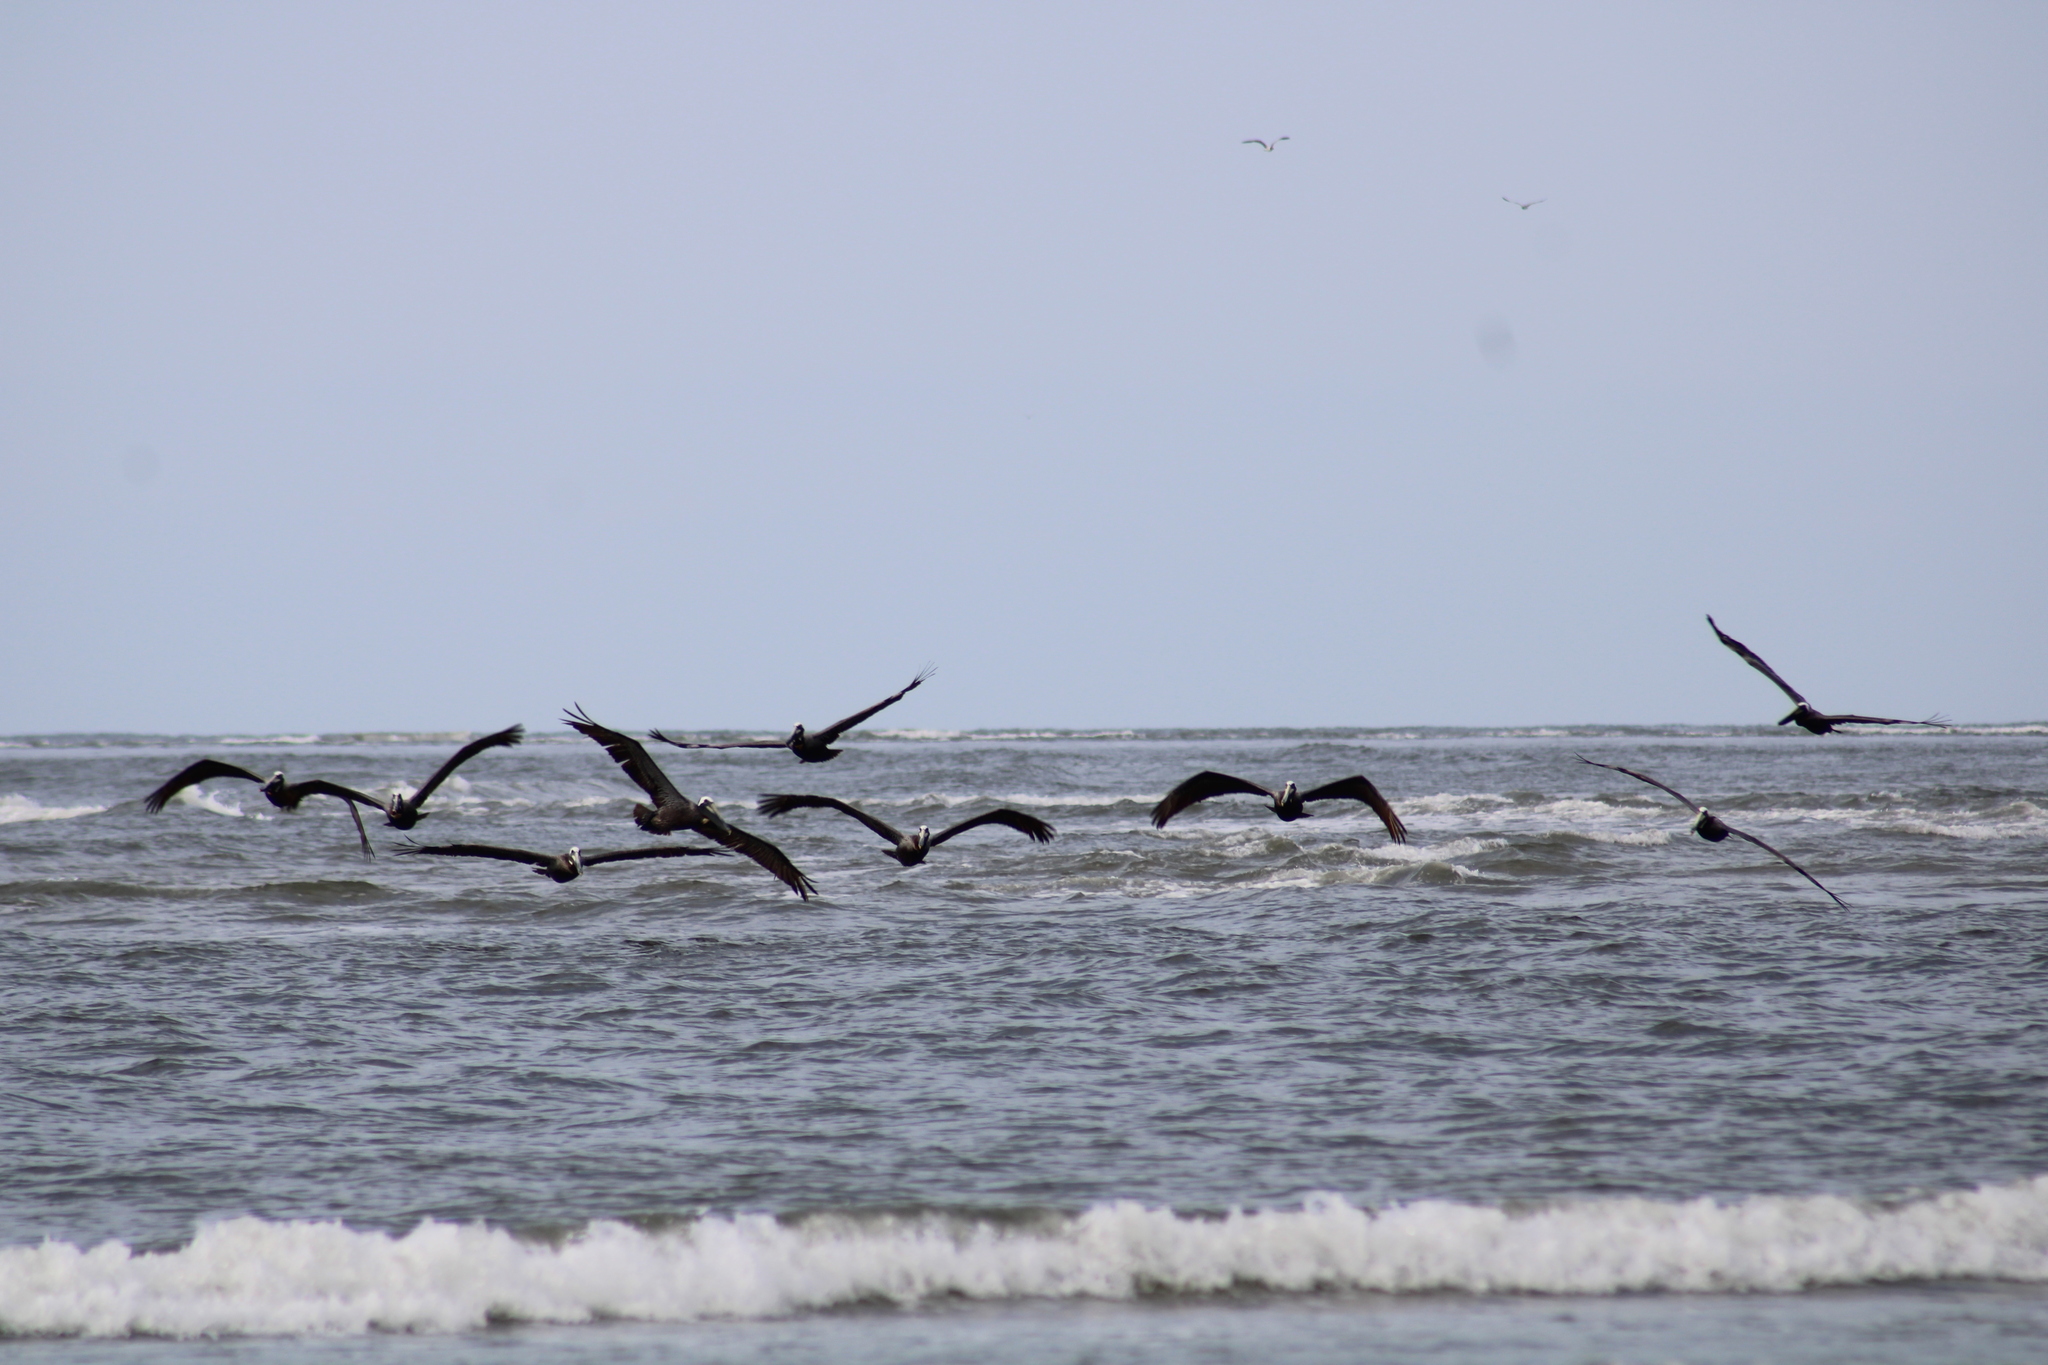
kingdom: Animalia
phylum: Chordata
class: Aves
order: Pelecaniformes
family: Pelecanidae
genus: Pelecanus
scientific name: Pelecanus occidentalis
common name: Brown pelican
